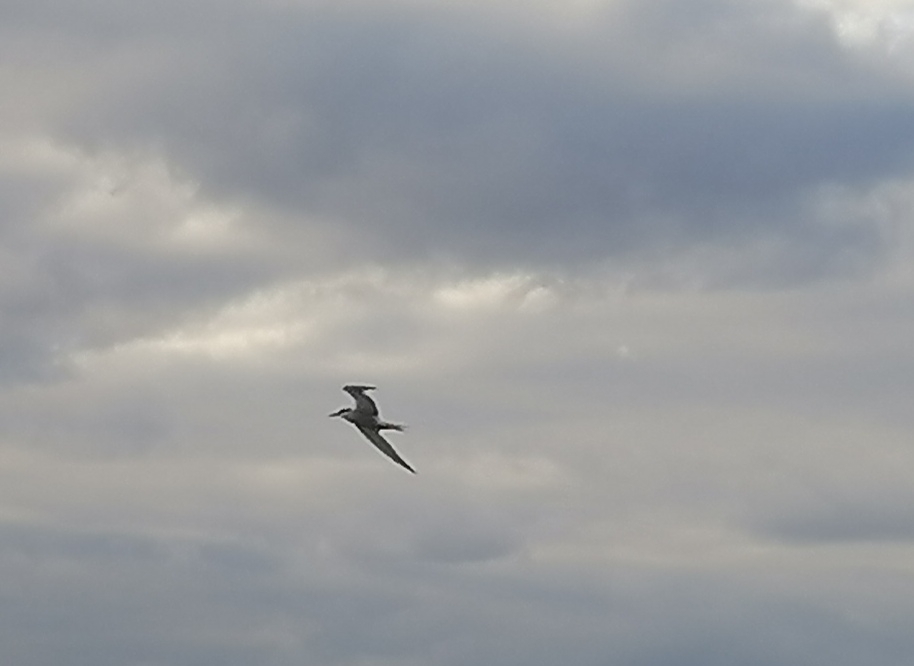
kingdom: Animalia
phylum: Chordata
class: Aves
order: Charadriiformes
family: Laridae
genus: Sterna
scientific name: Sterna hirundo
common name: Common tern
